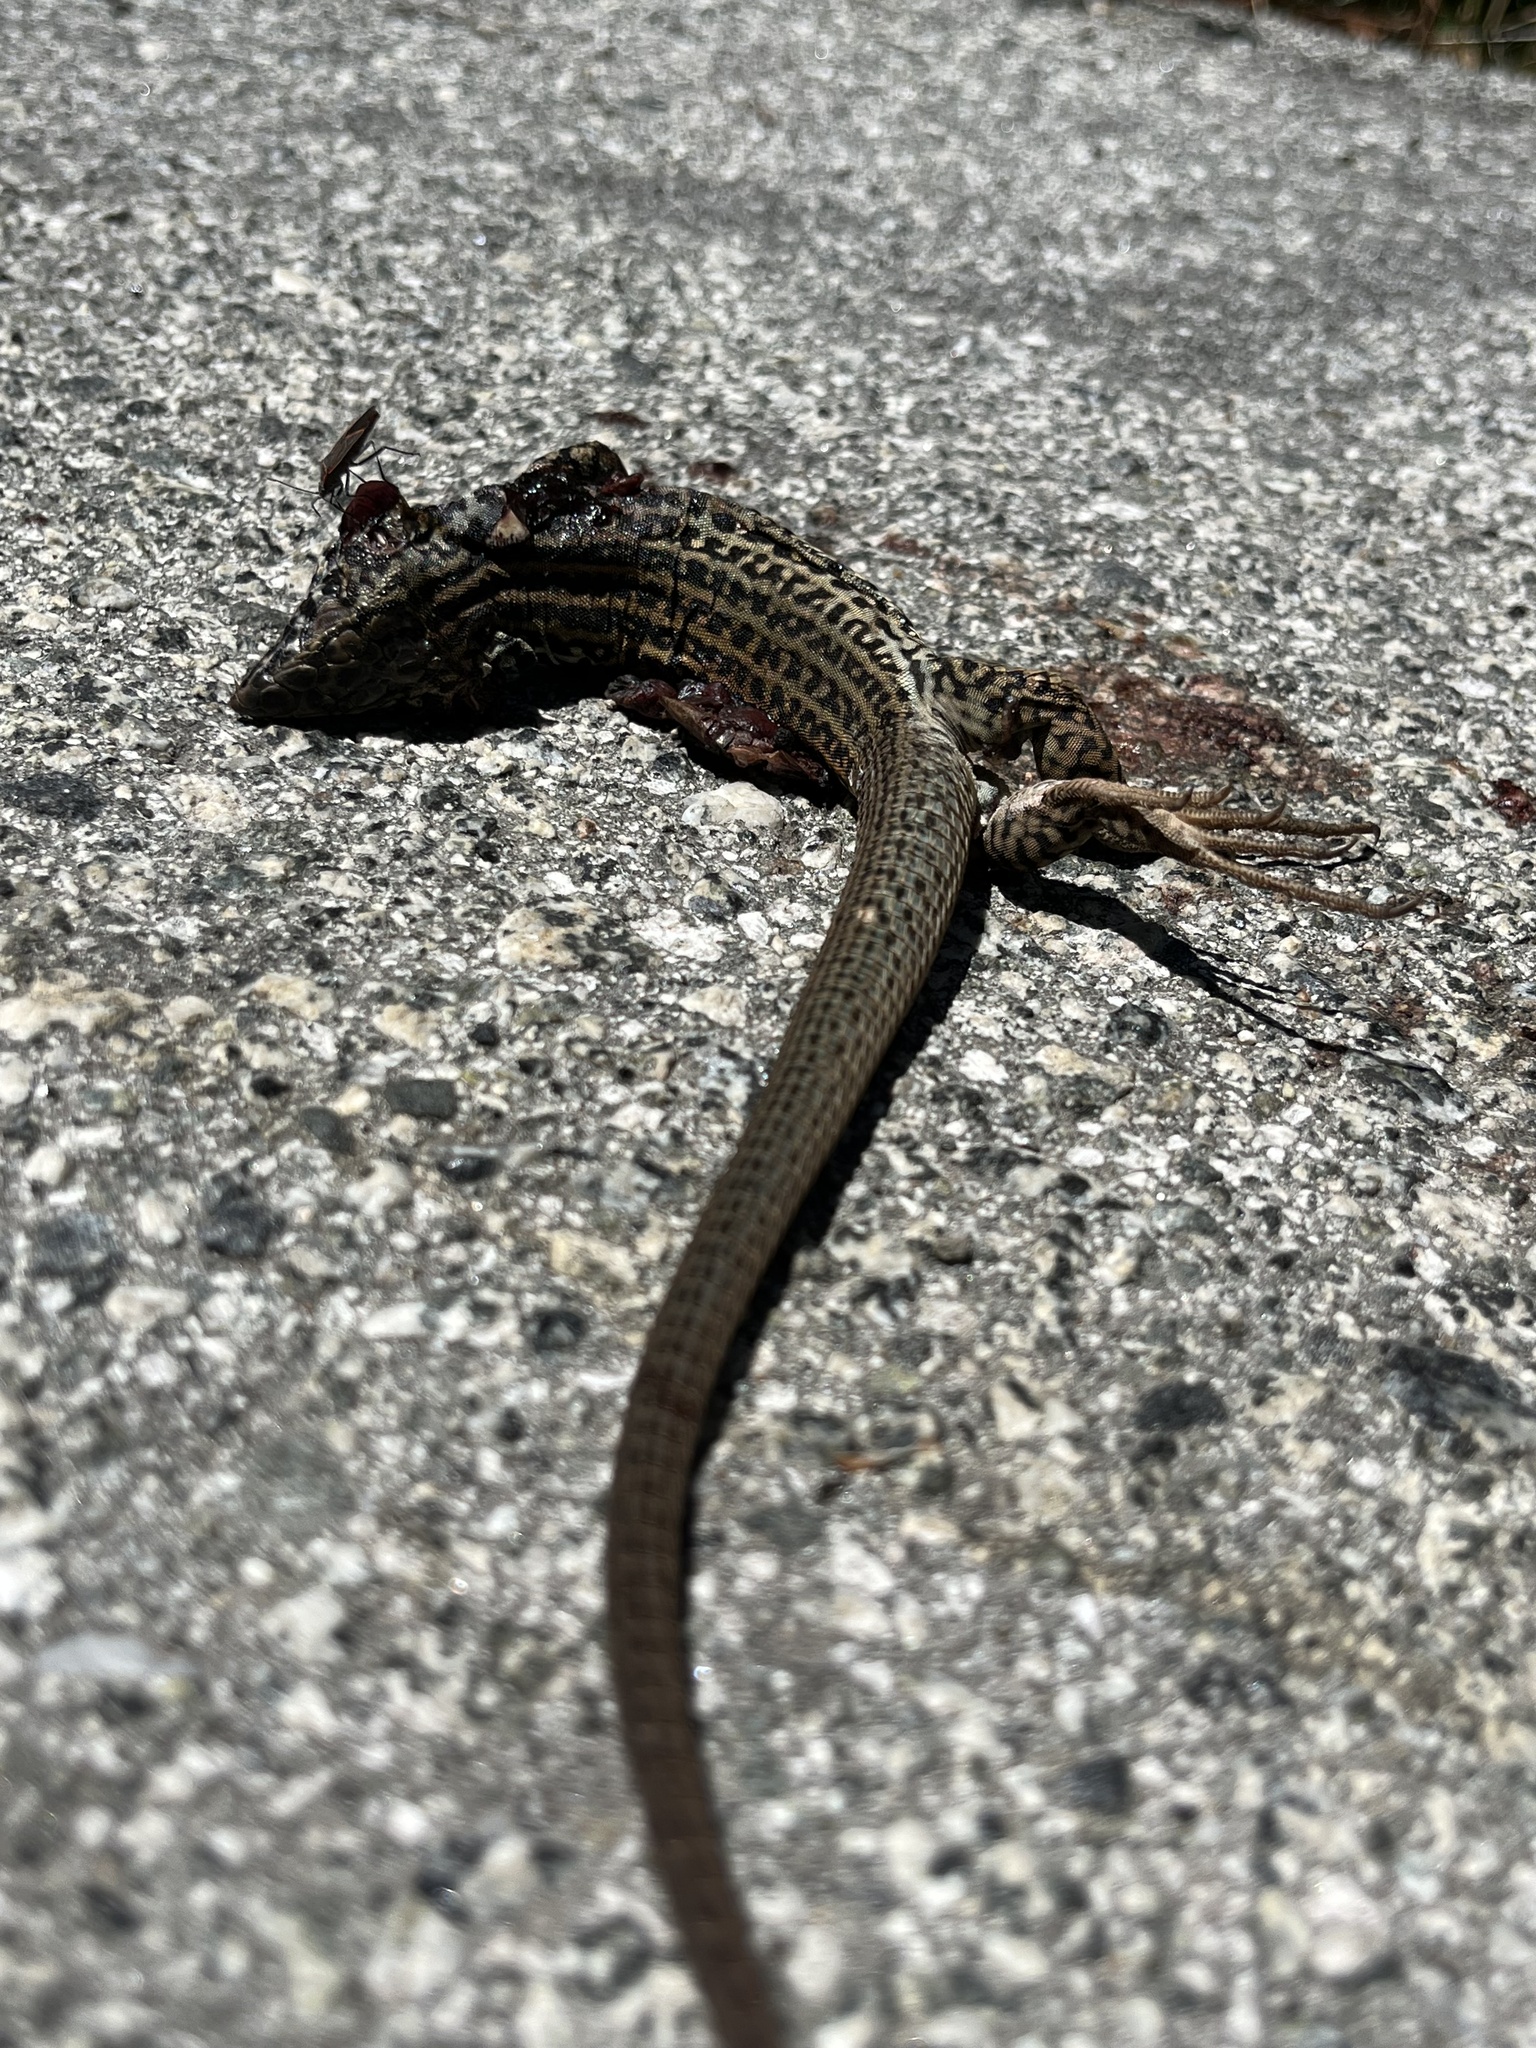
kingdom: Animalia
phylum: Chordata
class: Squamata
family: Teiidae
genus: Aspidoscelis
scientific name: Aspidoscelis tigris
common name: Tiger whiptail
